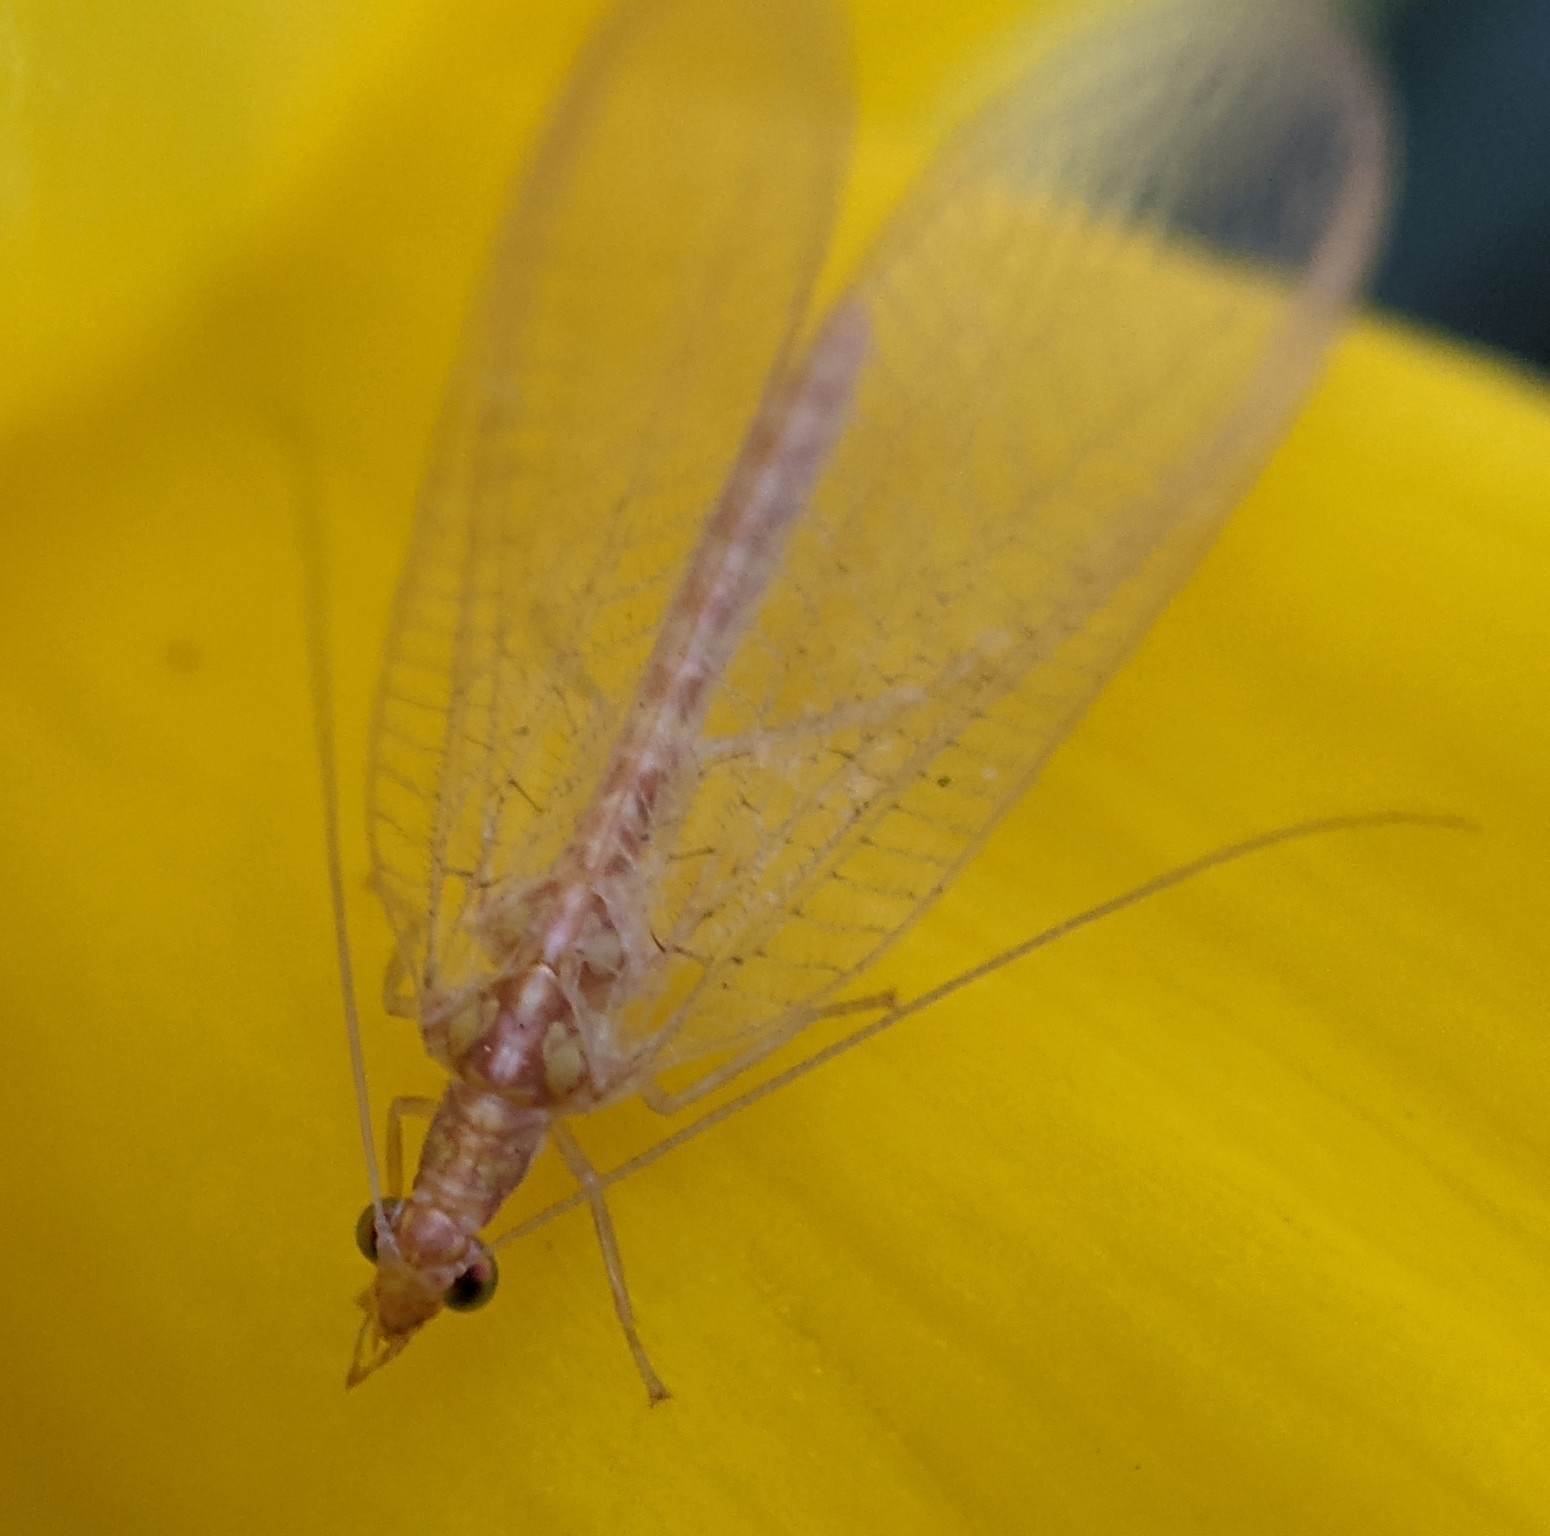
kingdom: Animalia
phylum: Arthropoda
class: Insecta
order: Neuroptera
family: Chrysopidae
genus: Chrysoperla
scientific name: Chrysoperla
